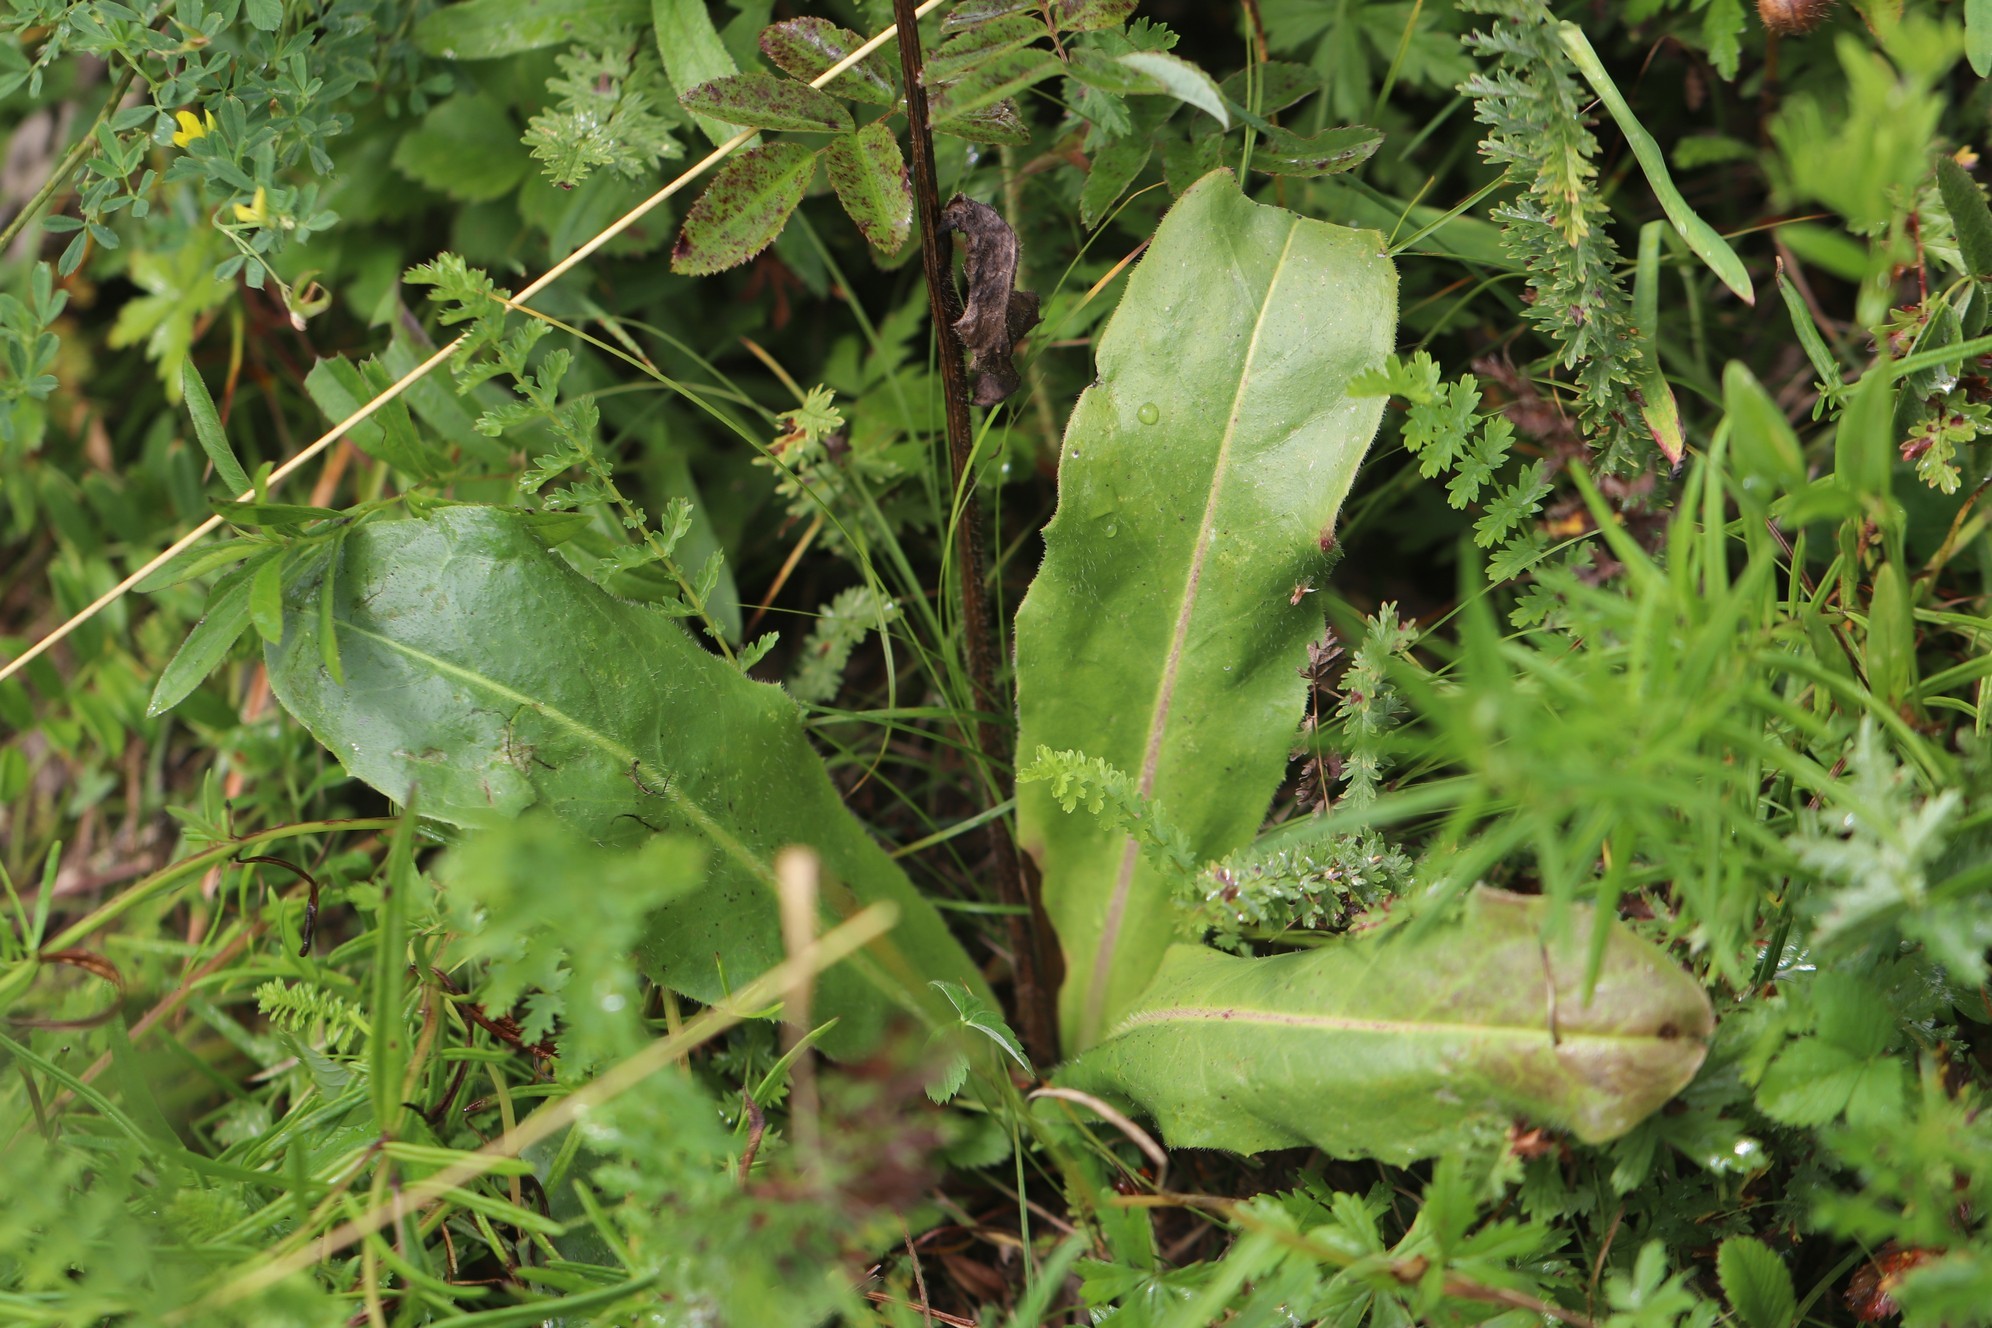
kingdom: Plantae
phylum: Tracheophyta
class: Magnoliopsida
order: Asterales
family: Asteraceae
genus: Trommsdorffia
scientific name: Trommsdorffia maculata
